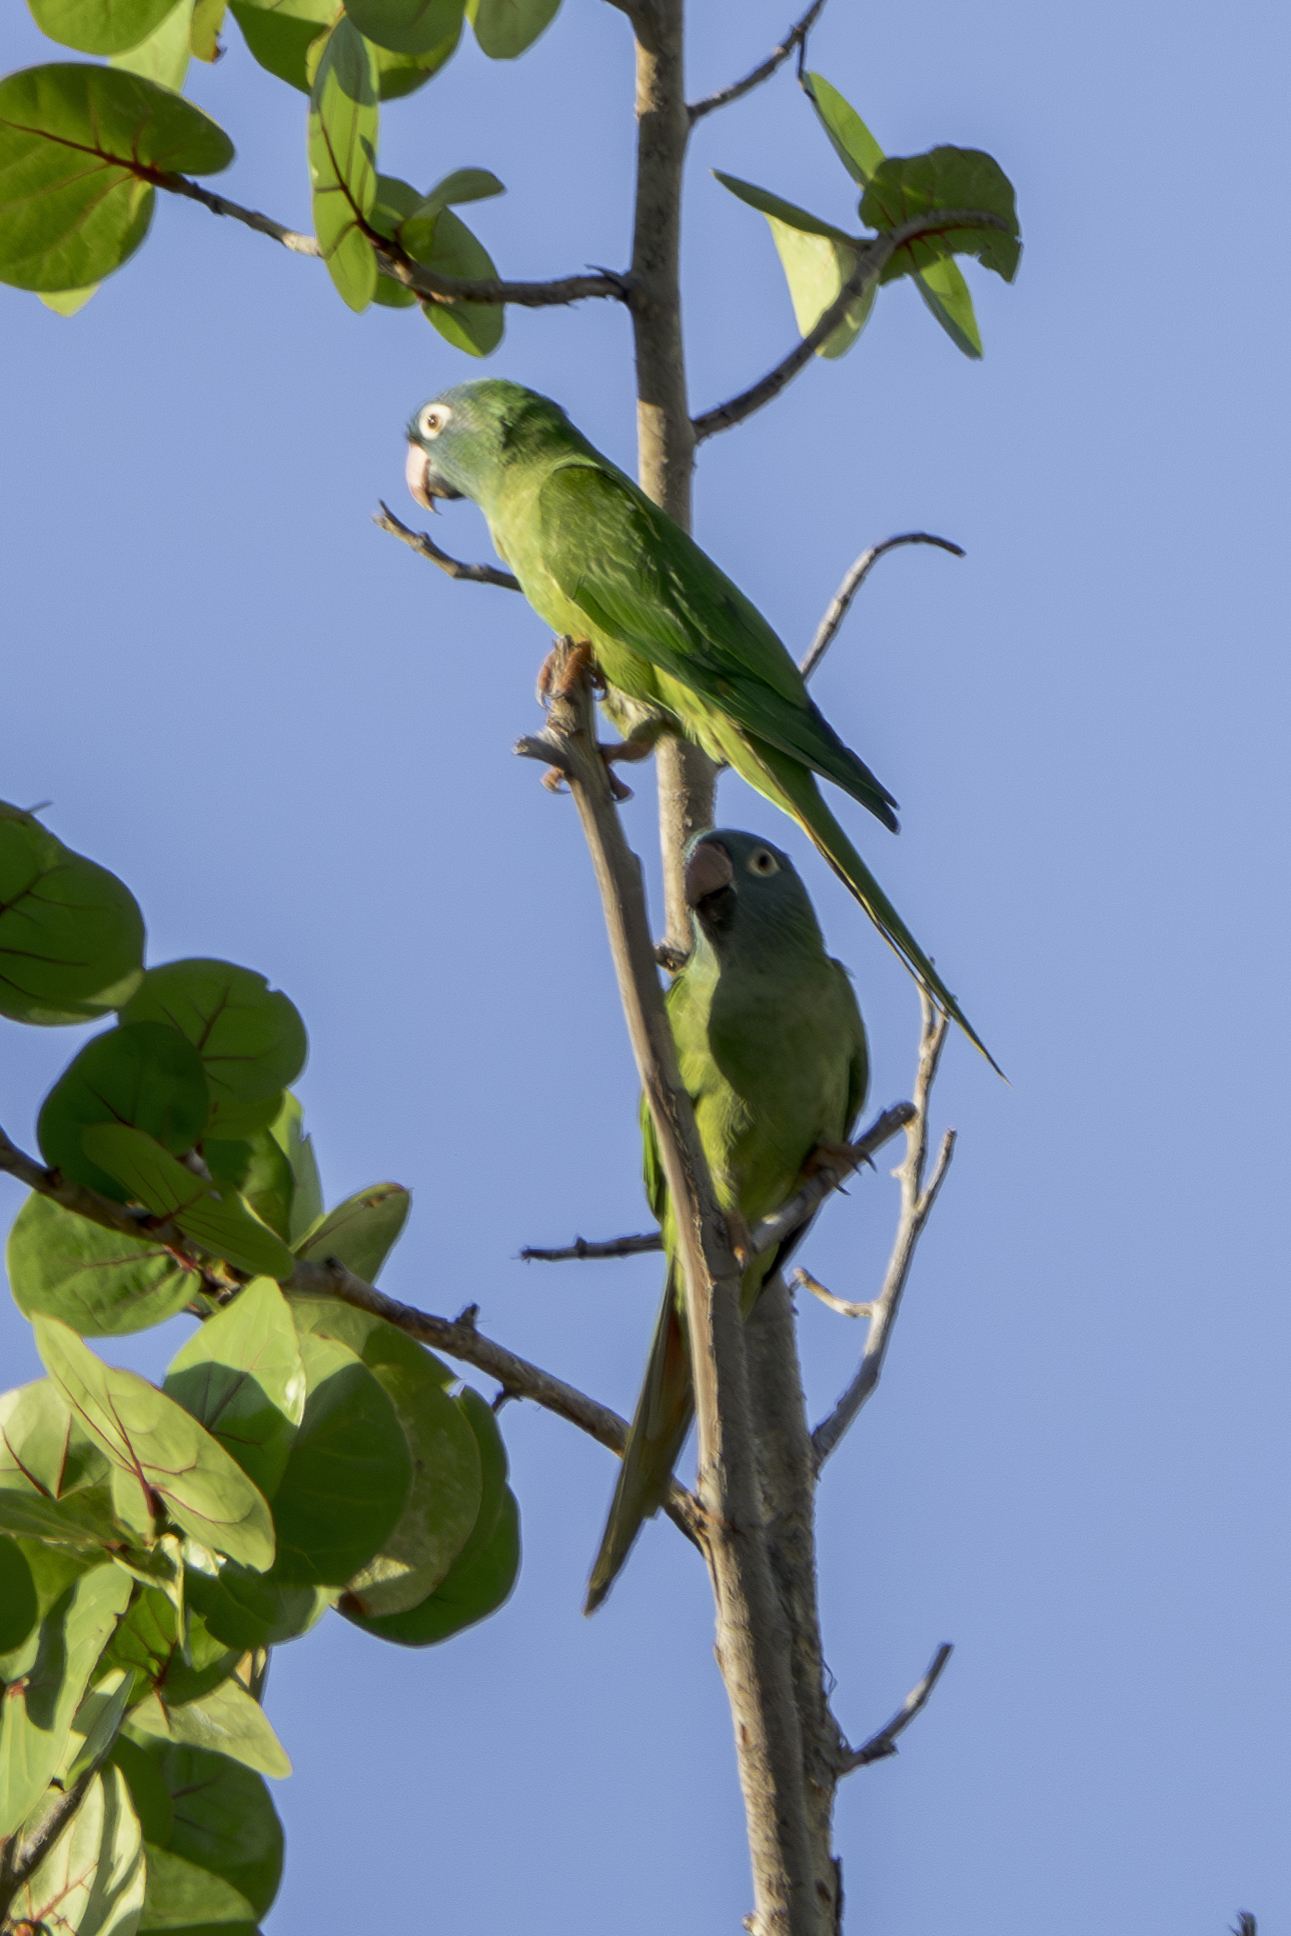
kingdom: Animalia
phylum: Chordata
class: Aves
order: Psittaciformes
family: Psittacidae
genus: Aratinga
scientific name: Aratinga acuticaudata
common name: Blue-crowned parakeet
